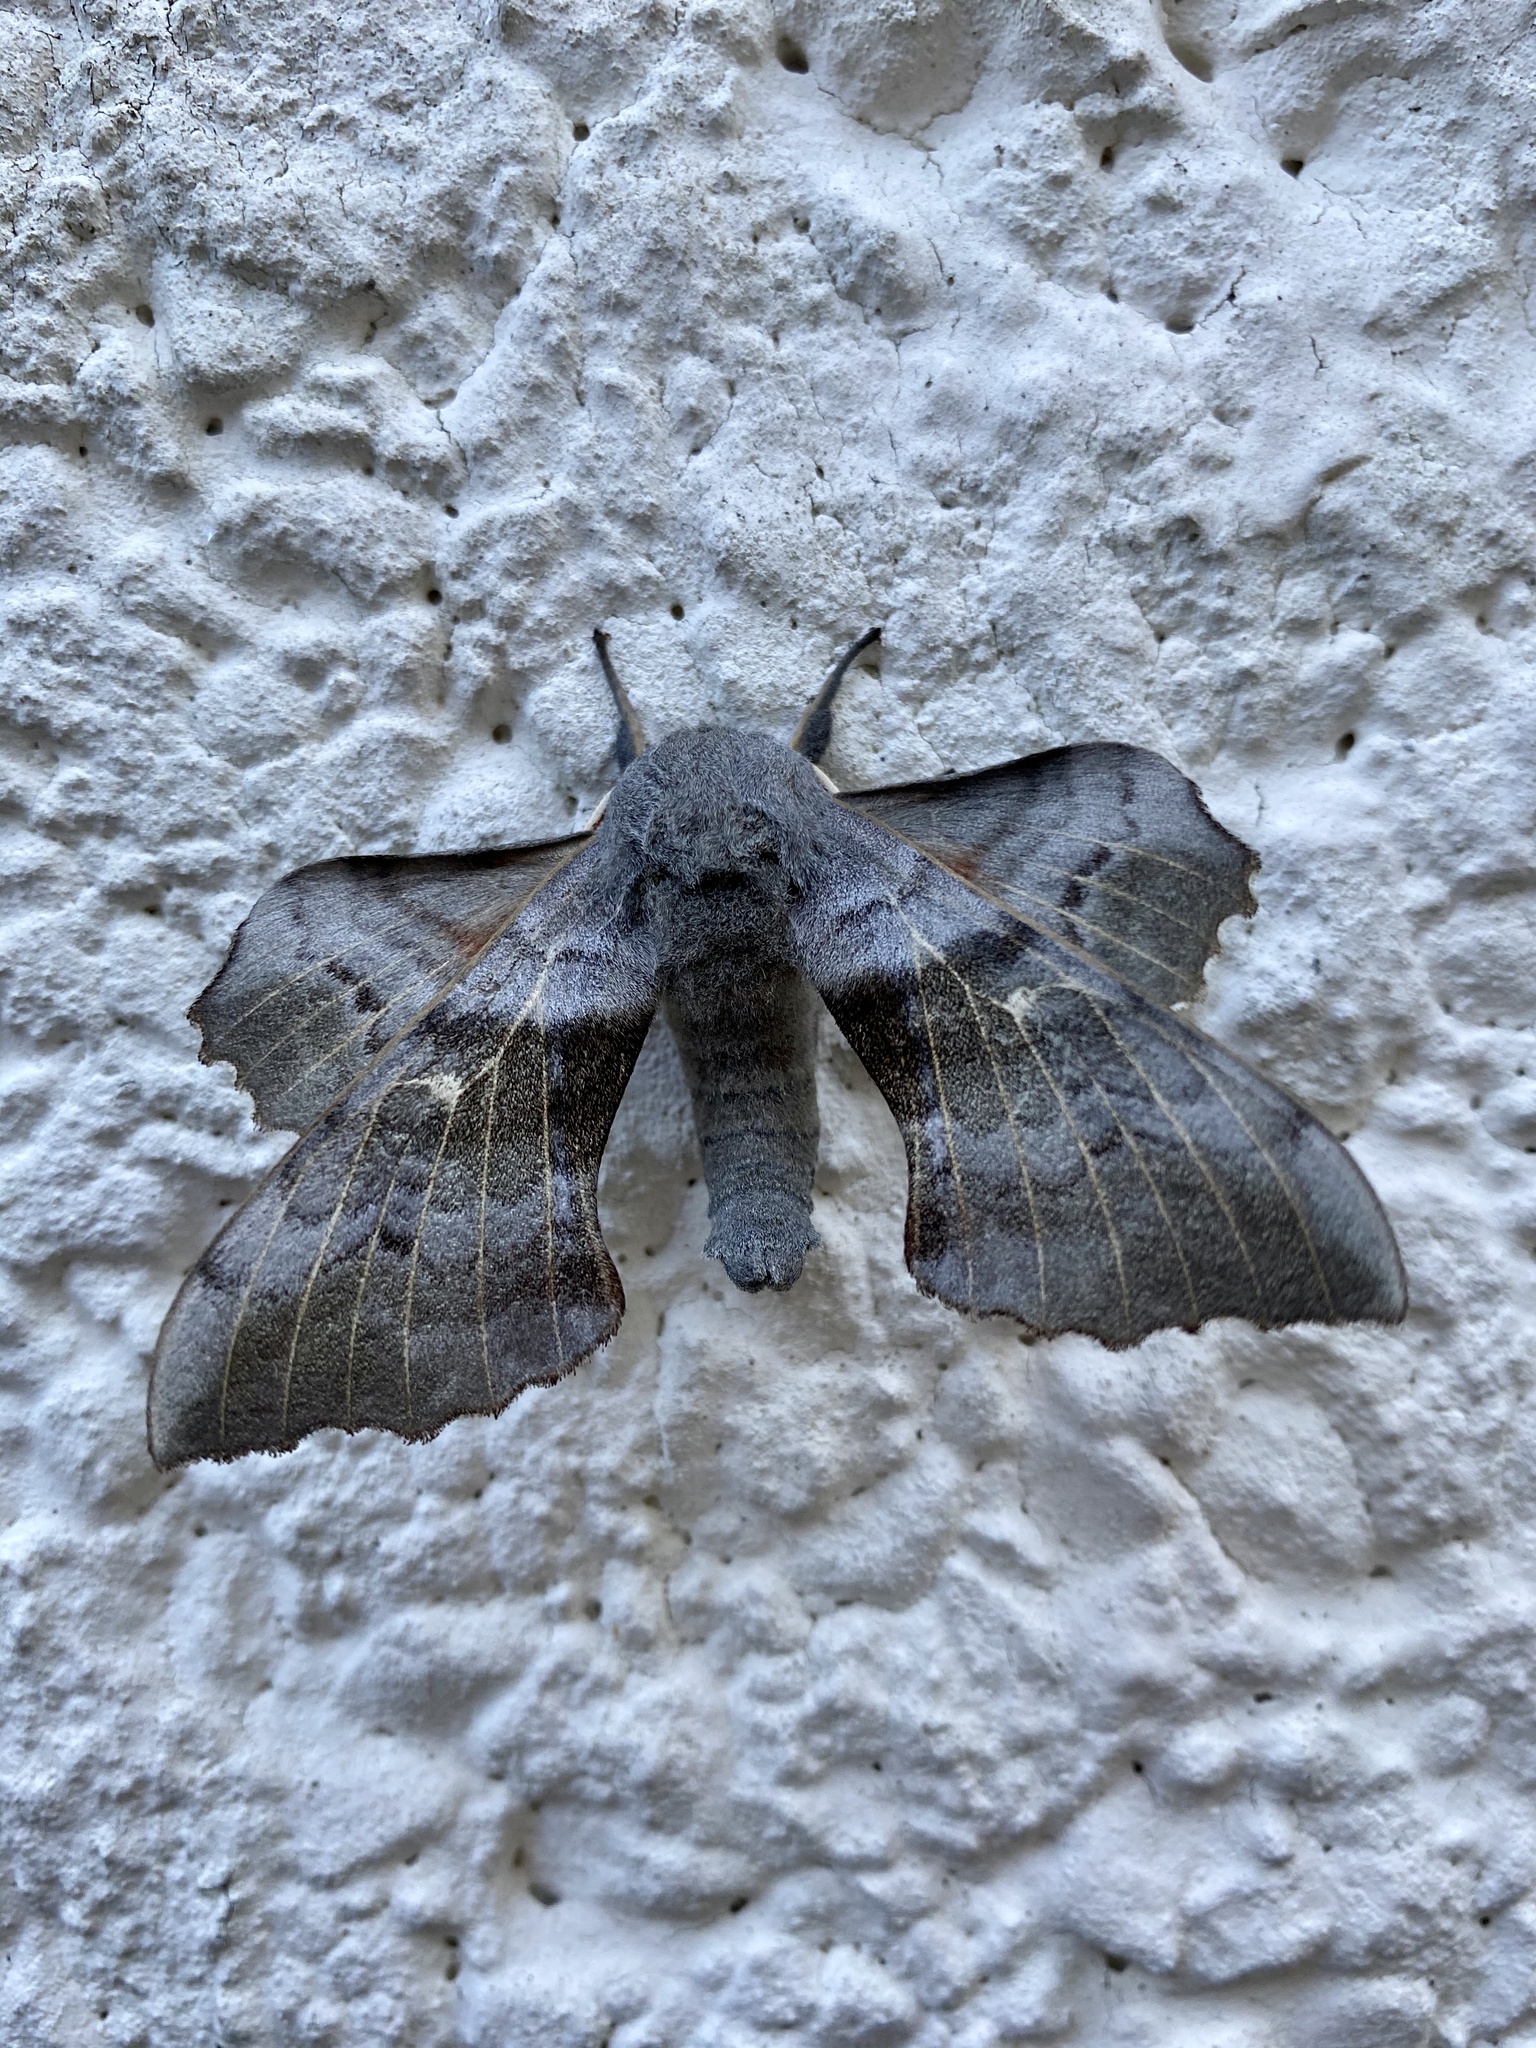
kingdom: Animalia
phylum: Arthropoda
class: Insecta
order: Lepidoptera
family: Sphingidae
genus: Laothoe
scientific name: Laothoe populi
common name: Poplar hawk-moth
